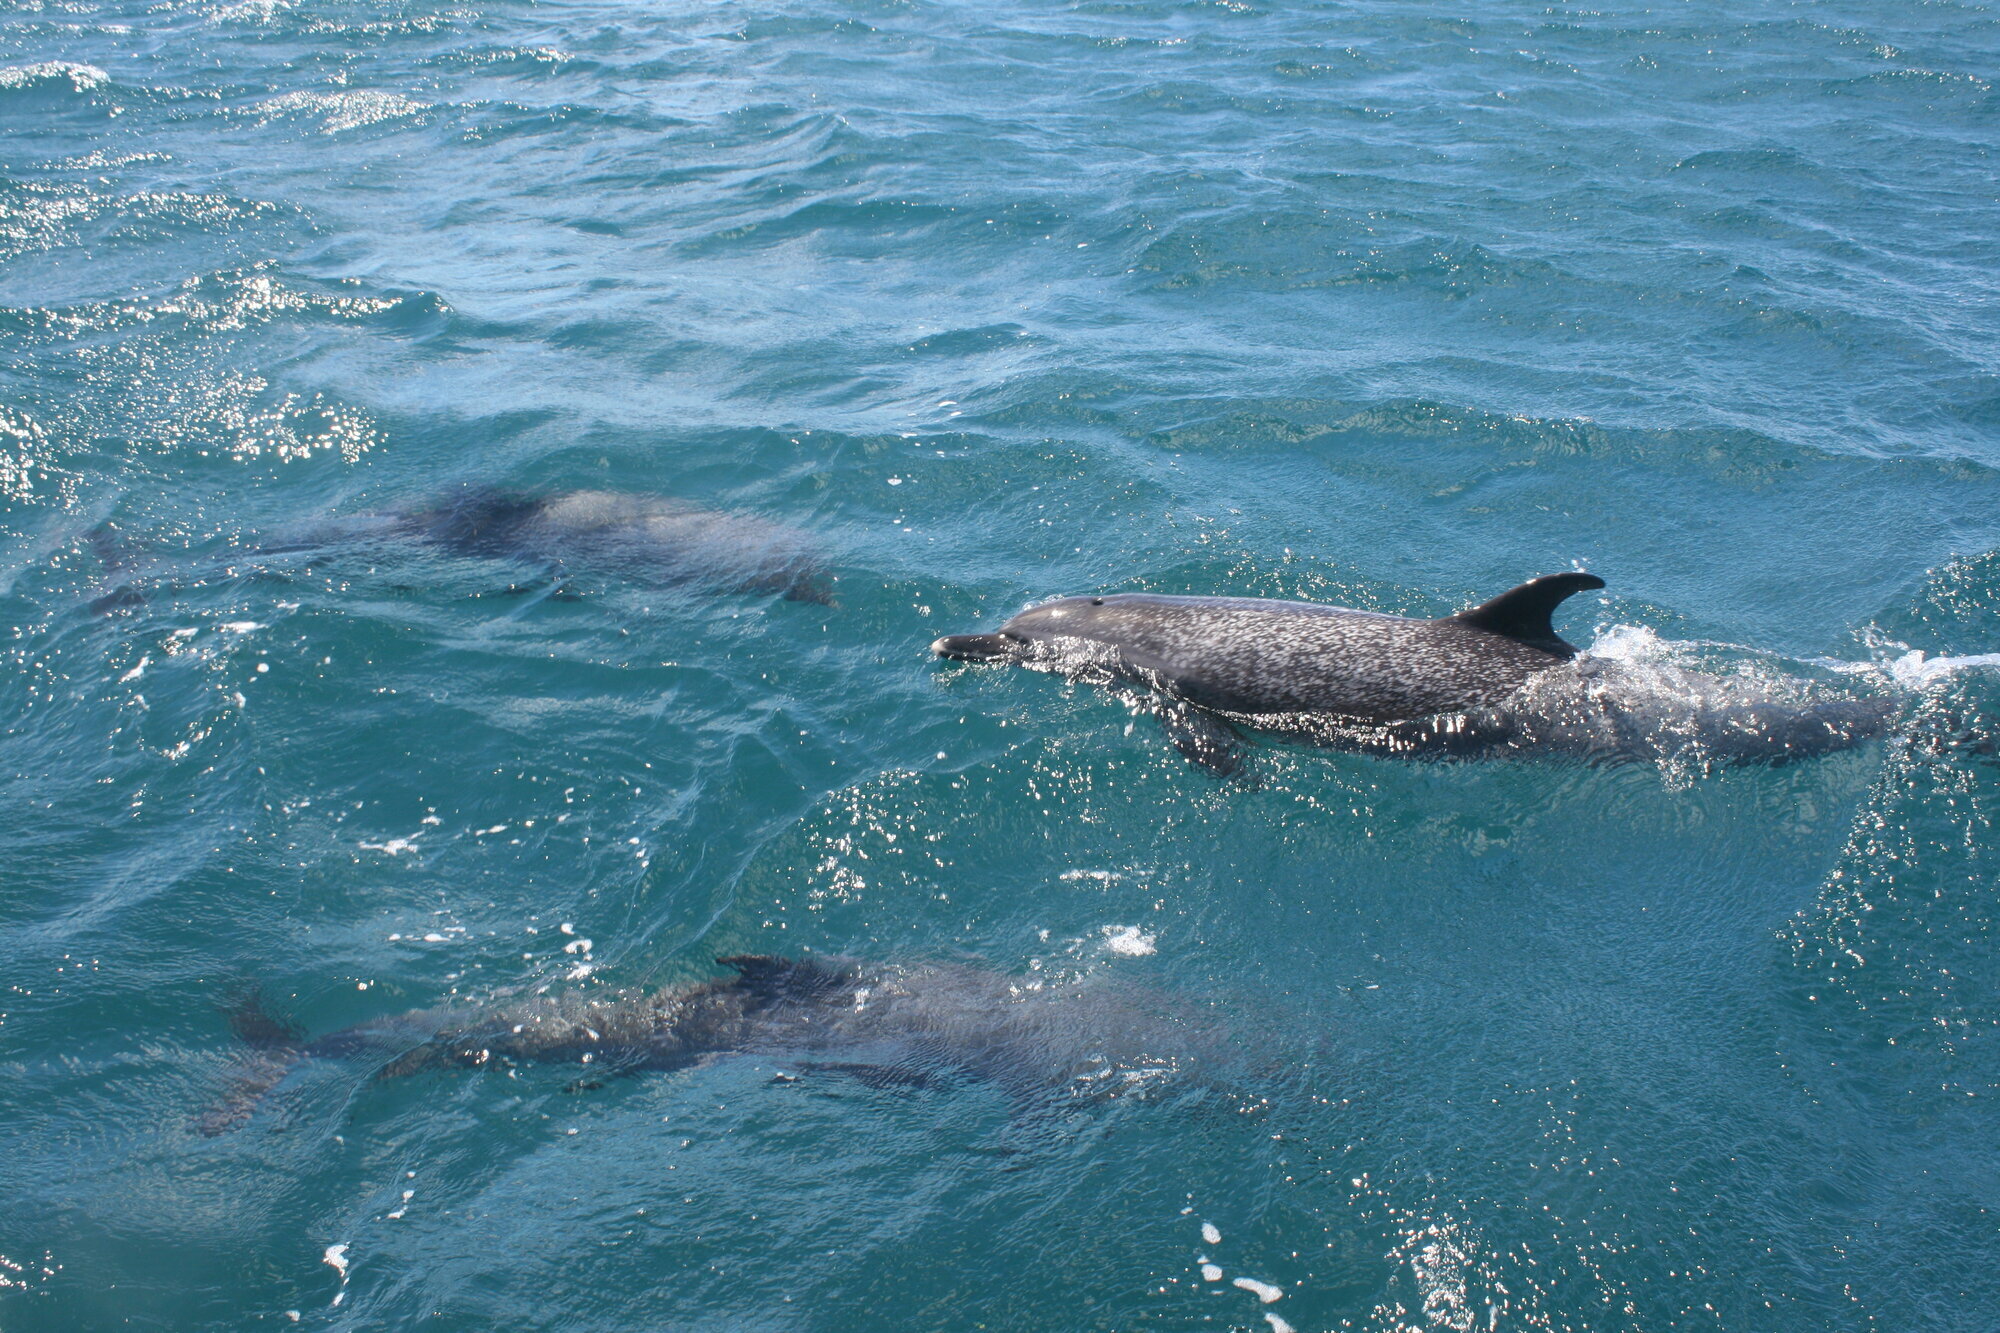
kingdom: Animalia
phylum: Chordata
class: Mammalia
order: Cetacea
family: Delphinidae
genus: Stenella
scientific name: Stenella attenuata
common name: Pantropical spotted dolphin
